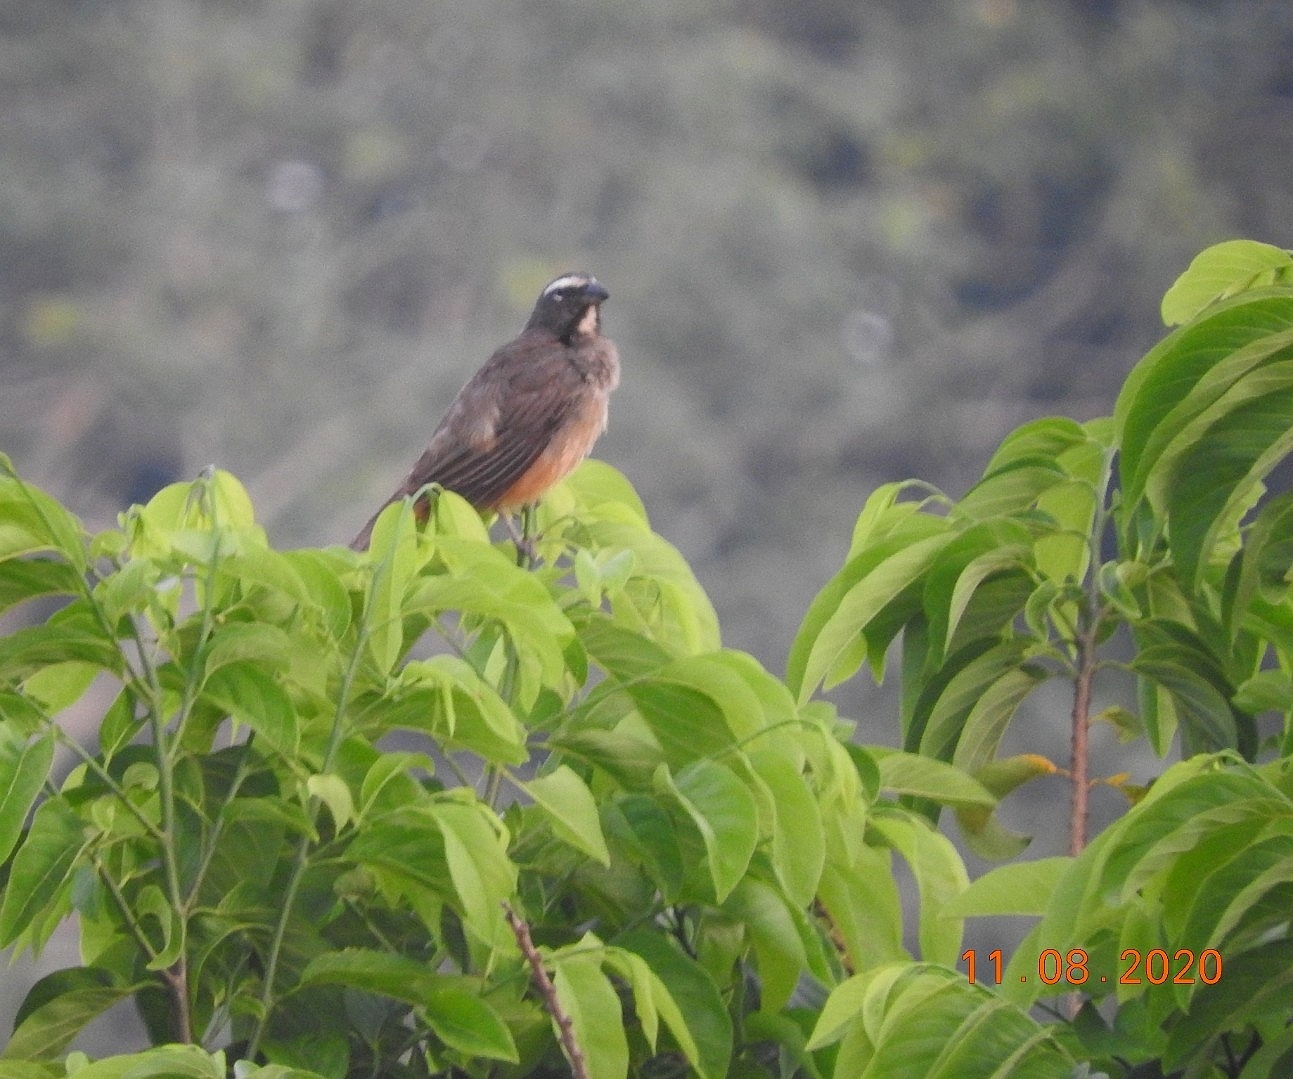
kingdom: Animalia
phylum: Chordata
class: Aves
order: Passeriformes
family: Thraupidae
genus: Saltator
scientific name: Saltator grandis
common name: Cinnamon-bellied saltator
